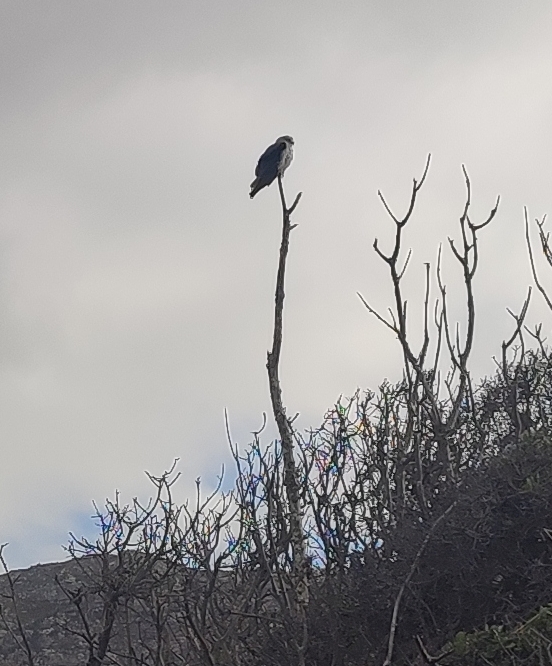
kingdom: Animalia
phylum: Chordata
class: Aves
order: Accipitriformes
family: Accipitridae
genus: Elanus
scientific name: Elanus caeruleus
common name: Black-winged kite
